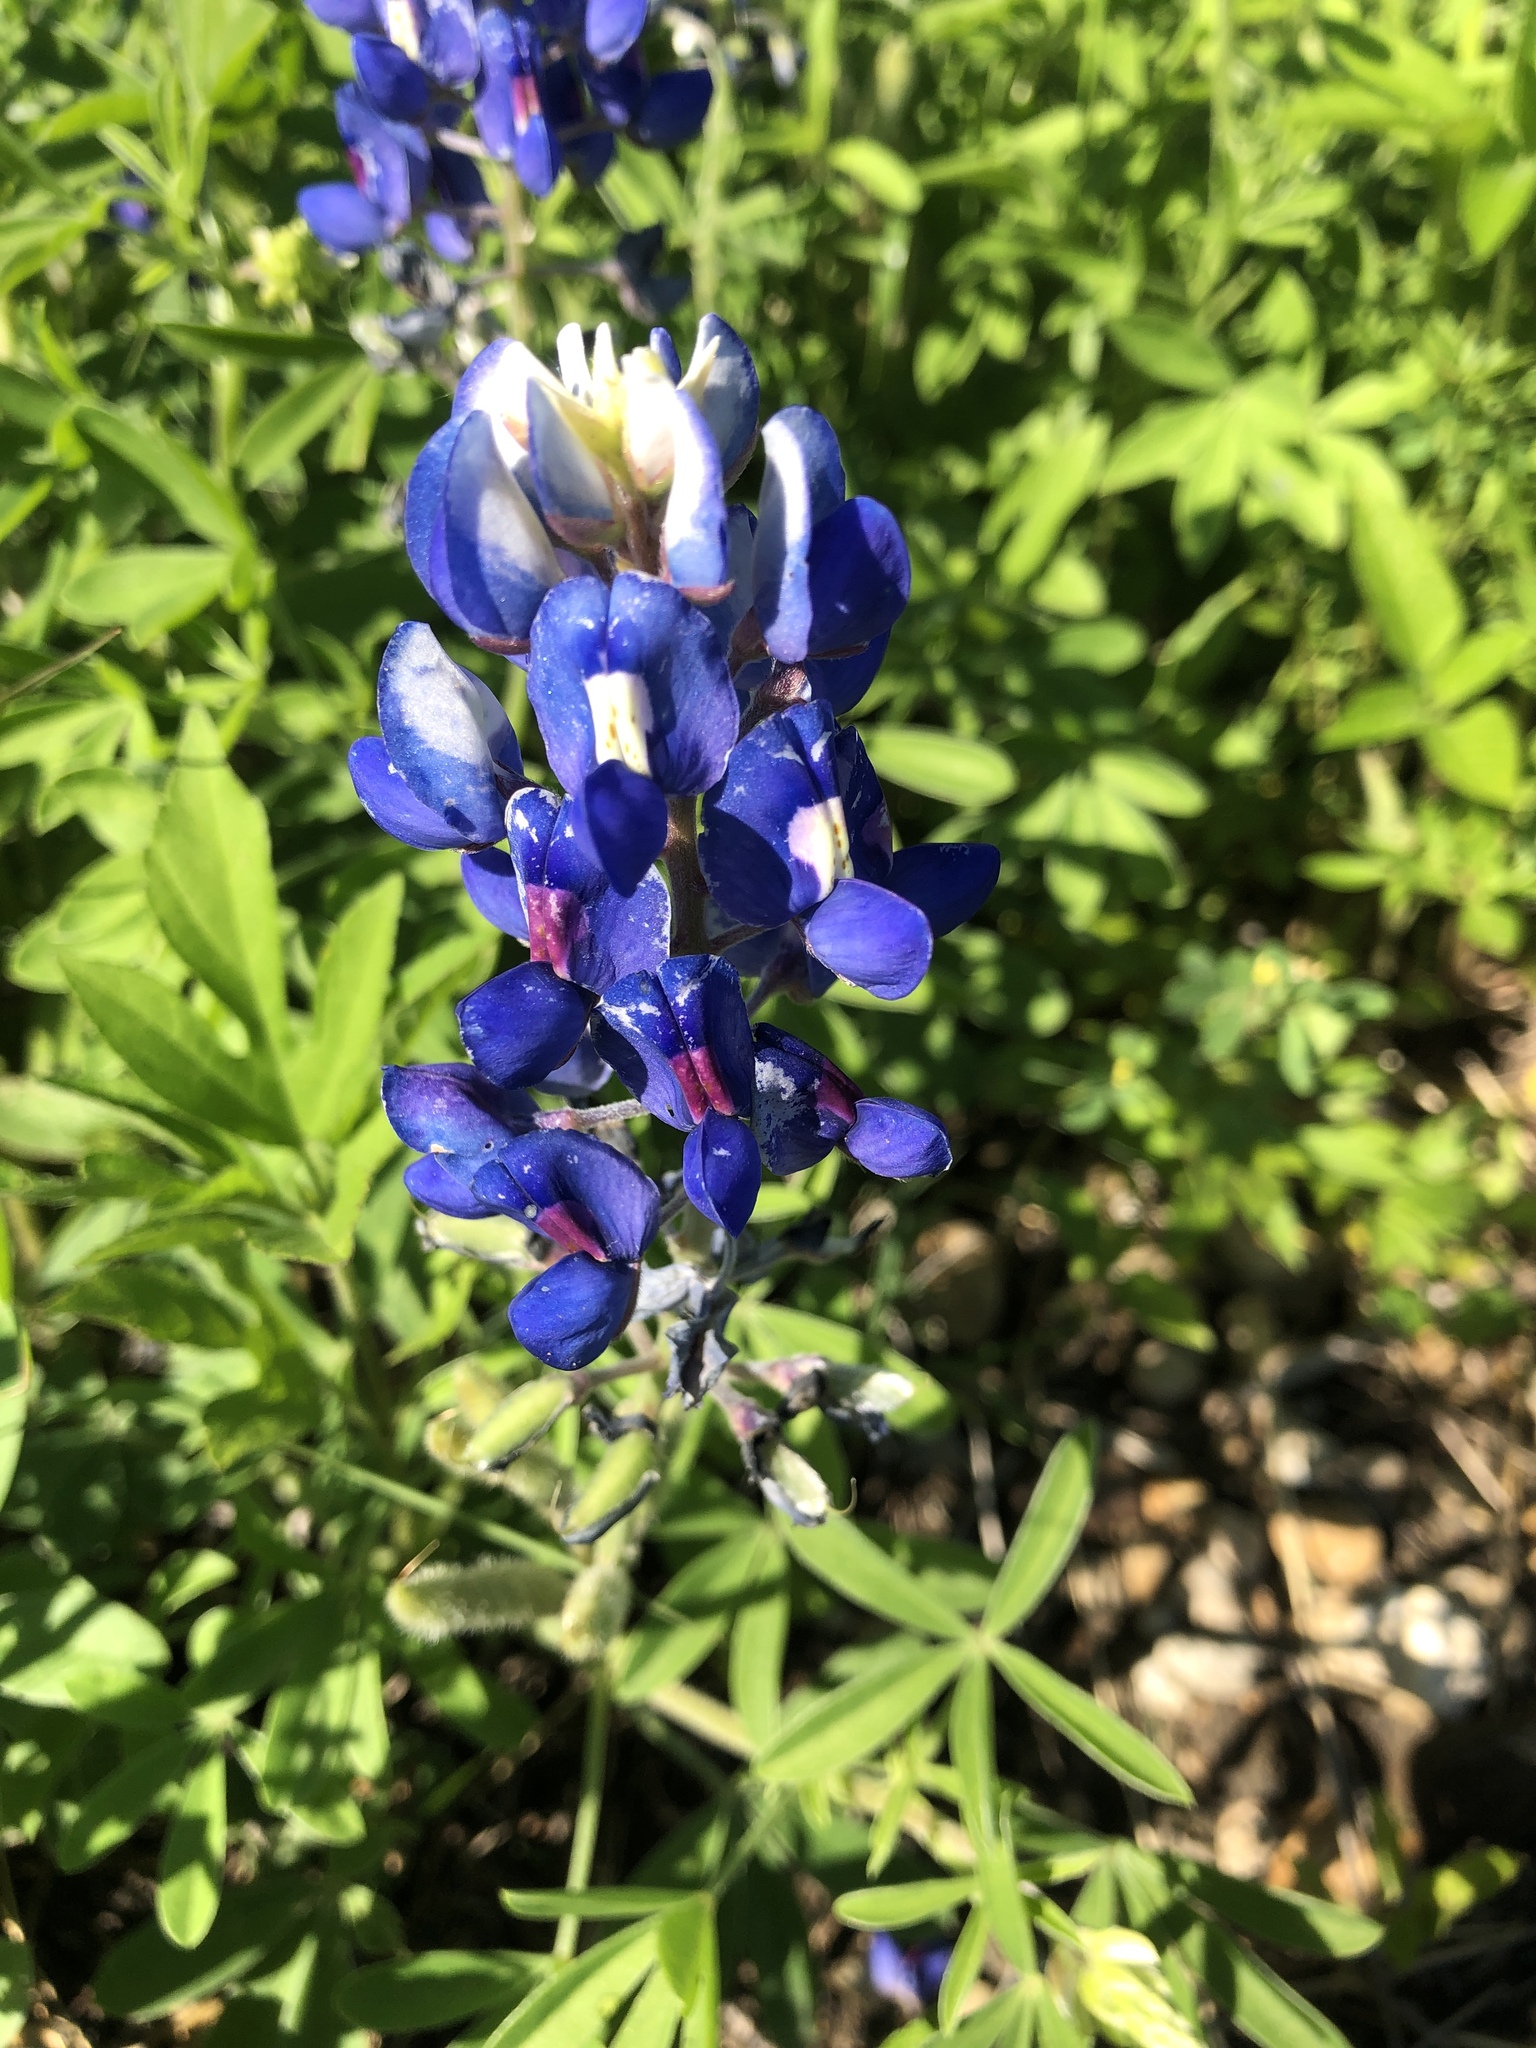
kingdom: Plantae
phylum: Tracheophyta
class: Magnoliopsida
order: Fabales
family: Fabaceae
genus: Lupinus
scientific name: Lupinus texensis
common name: Texas bluebonnet
